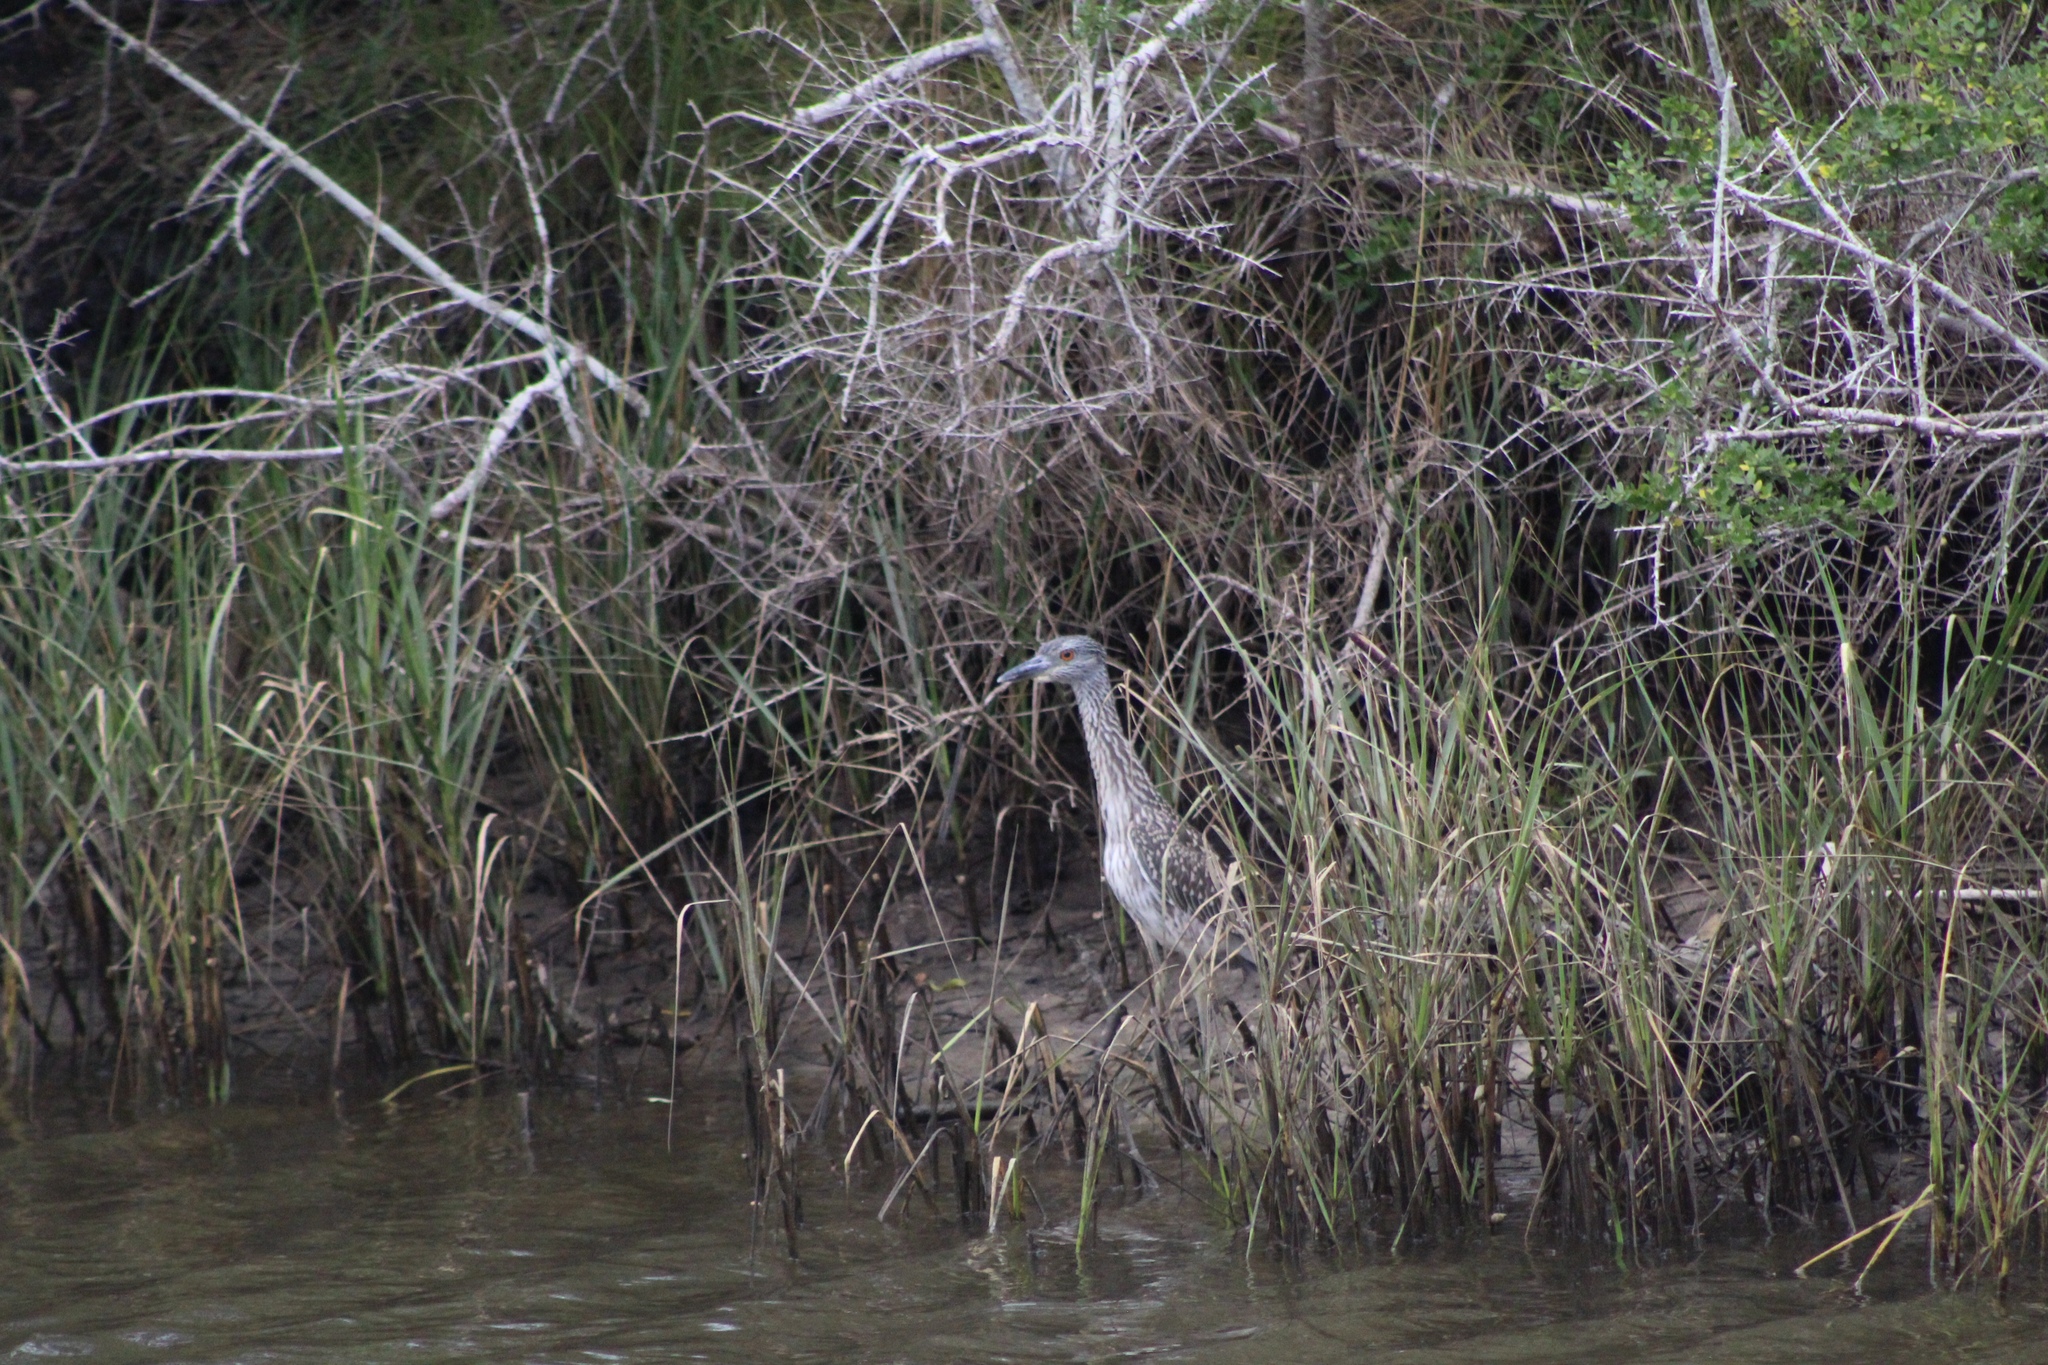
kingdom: Animalia
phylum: Chordata
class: Aves
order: Pelecaniformes
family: Ardeidae
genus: Nyctanassa
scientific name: Nyctanassa violacea
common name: Yellow-crowned night heron
